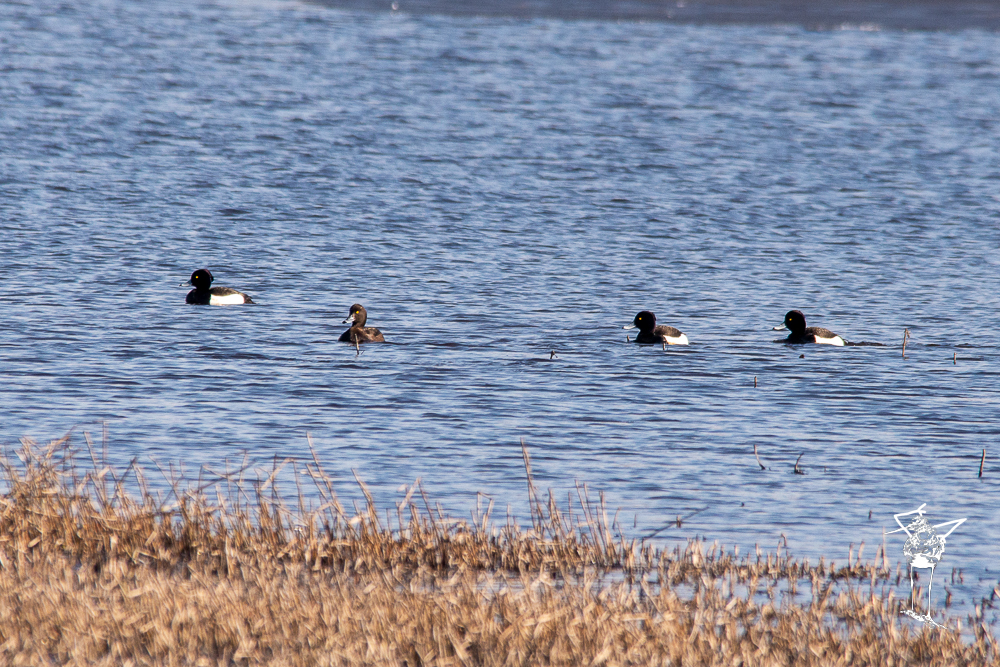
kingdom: Animalia
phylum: Chordata
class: Aves
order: Anseriformes
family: Anatidae
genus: Aythya
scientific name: Aythya fuligula
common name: Tufted duck
